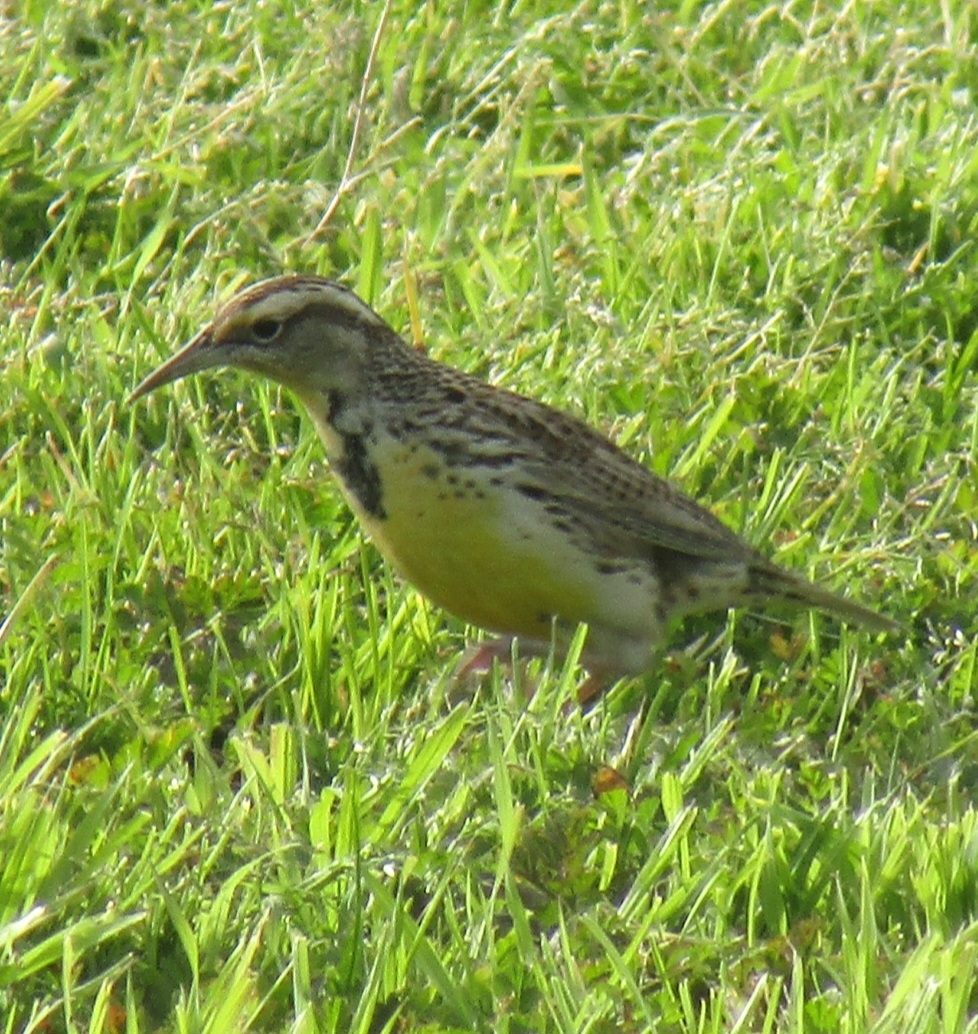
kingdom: Animalia
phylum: Chordata
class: Aves
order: Passeriformes
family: Icteridae
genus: Sturnella
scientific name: Sturnella neglecta
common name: Western meadowlark
